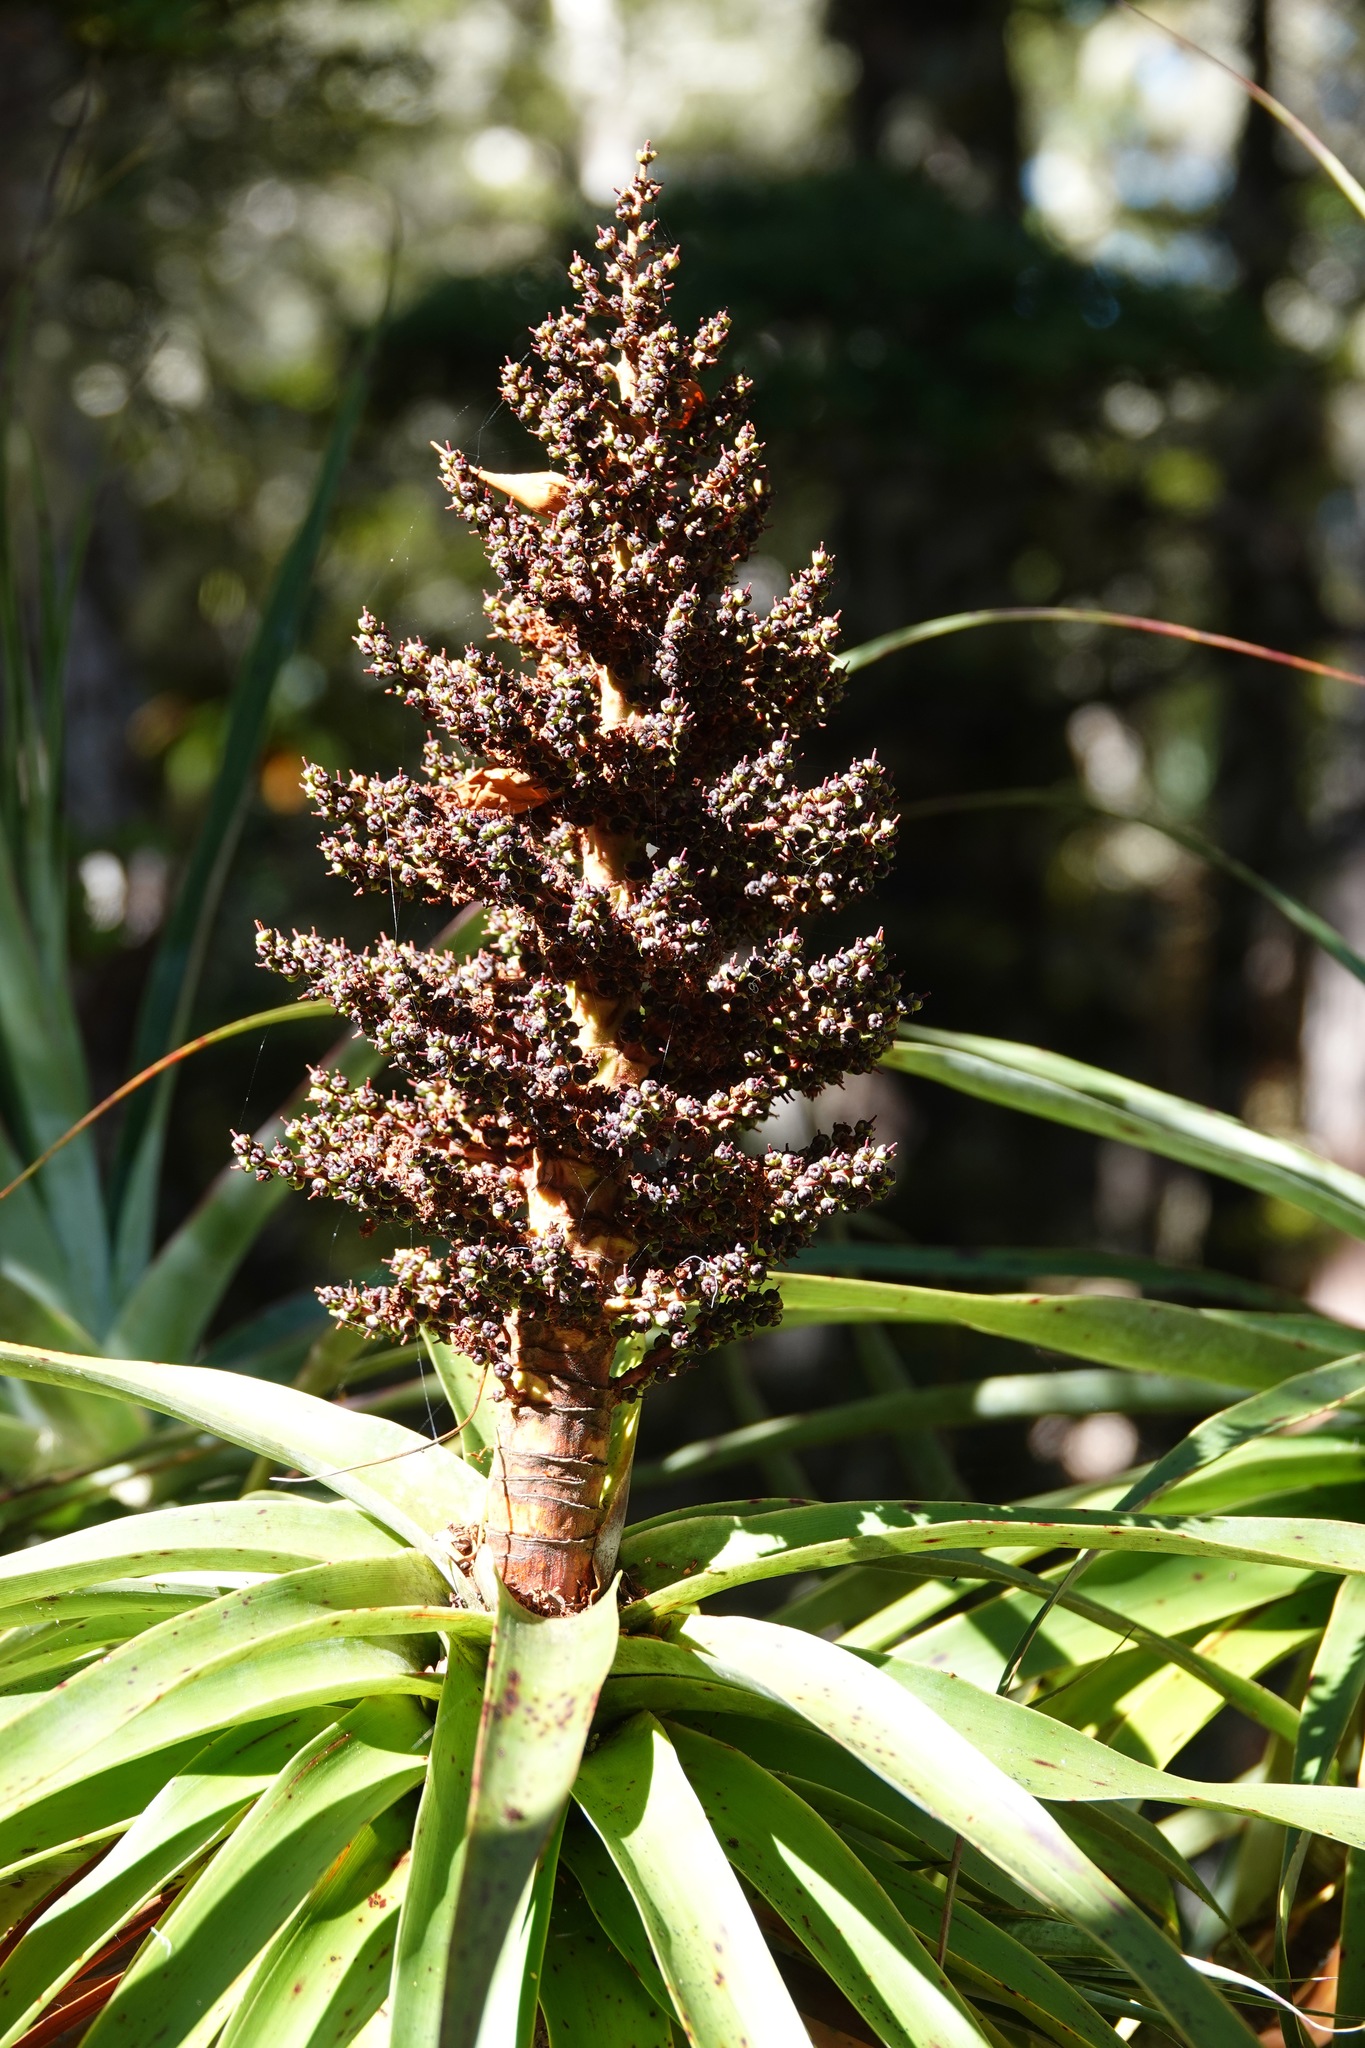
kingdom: Plantae
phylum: Tracheophyta
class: Magnoliopsida
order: Ericales
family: Ericaceae
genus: Dracophyllum
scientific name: Dracophyllum traversii
